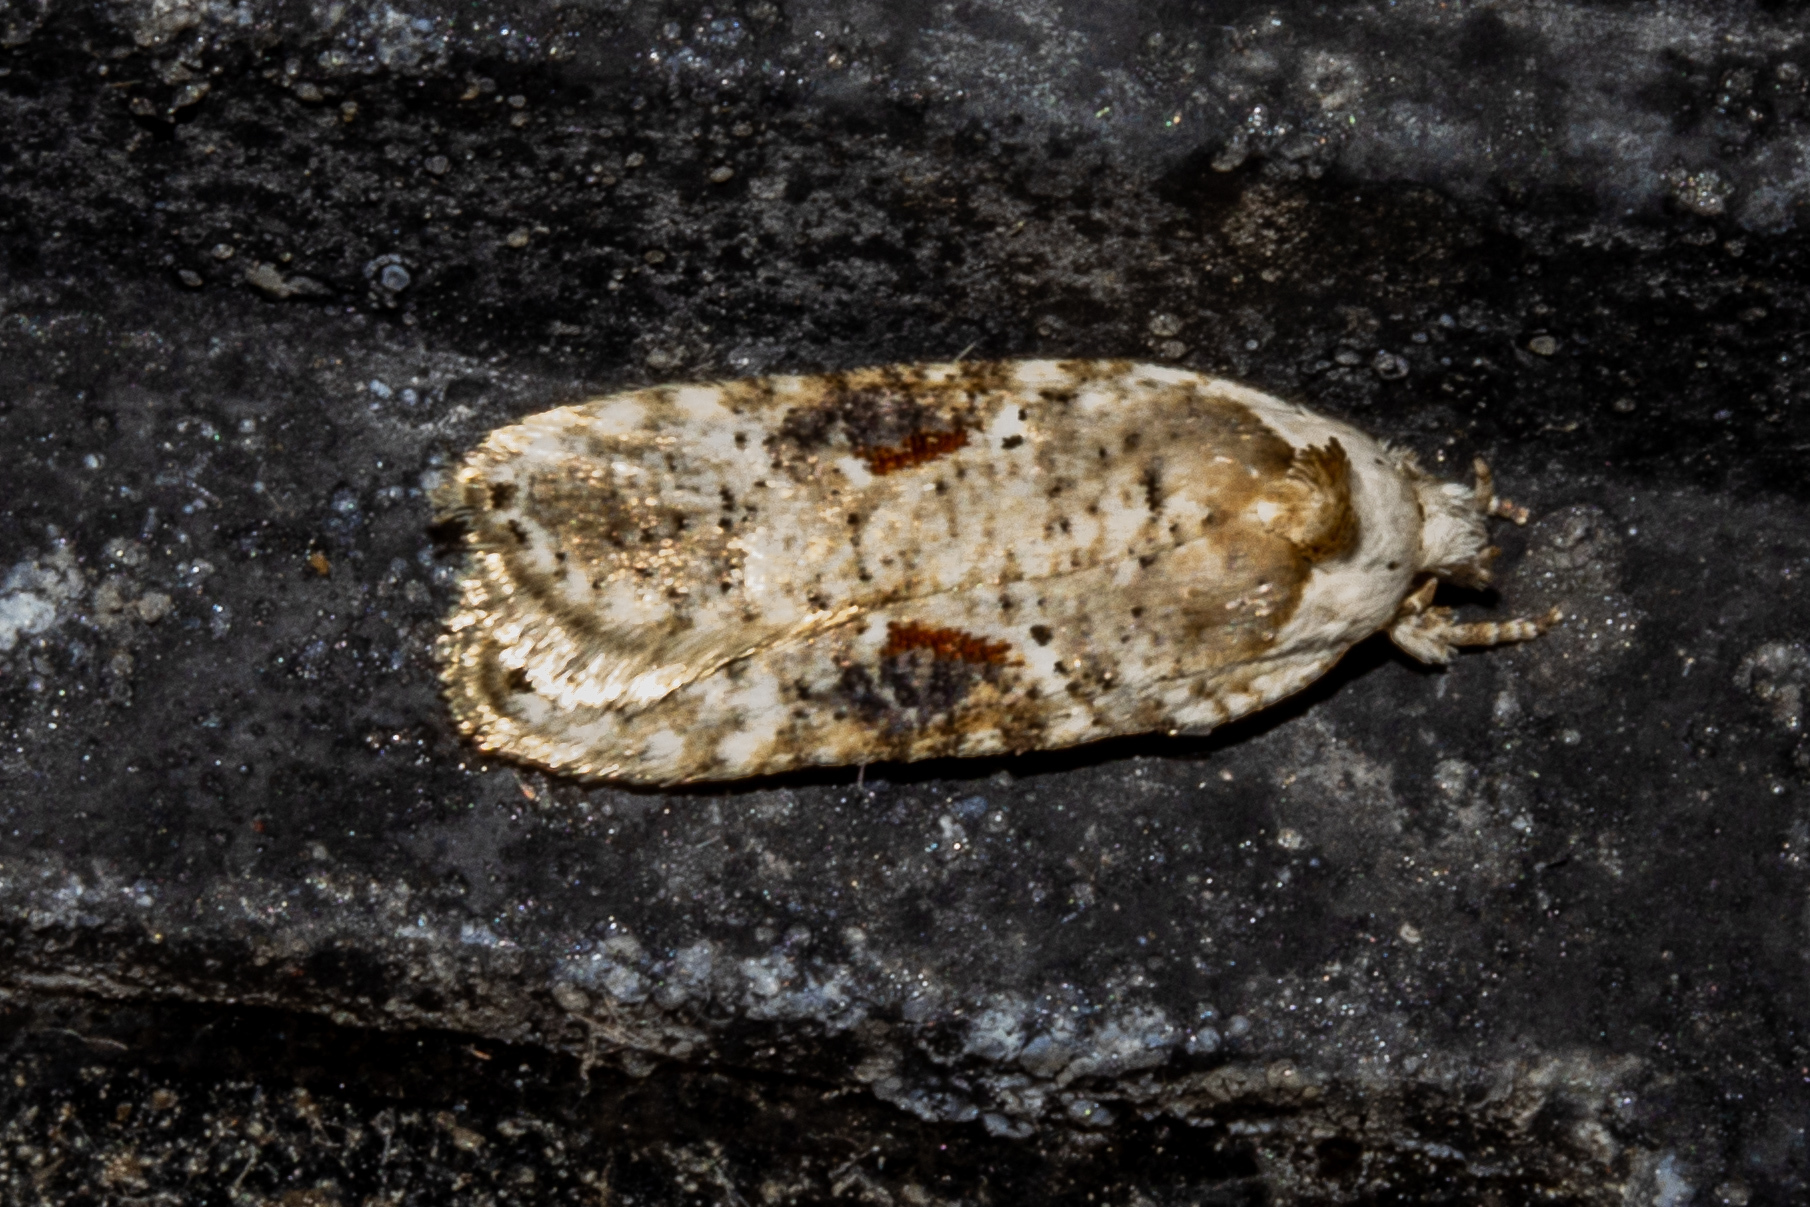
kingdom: Animalia
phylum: Arthropoda
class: Insecta
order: Lepidoptera
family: Depressariidae
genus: Agonopterix
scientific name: Agonopterix alstroemeriana
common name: Moth
